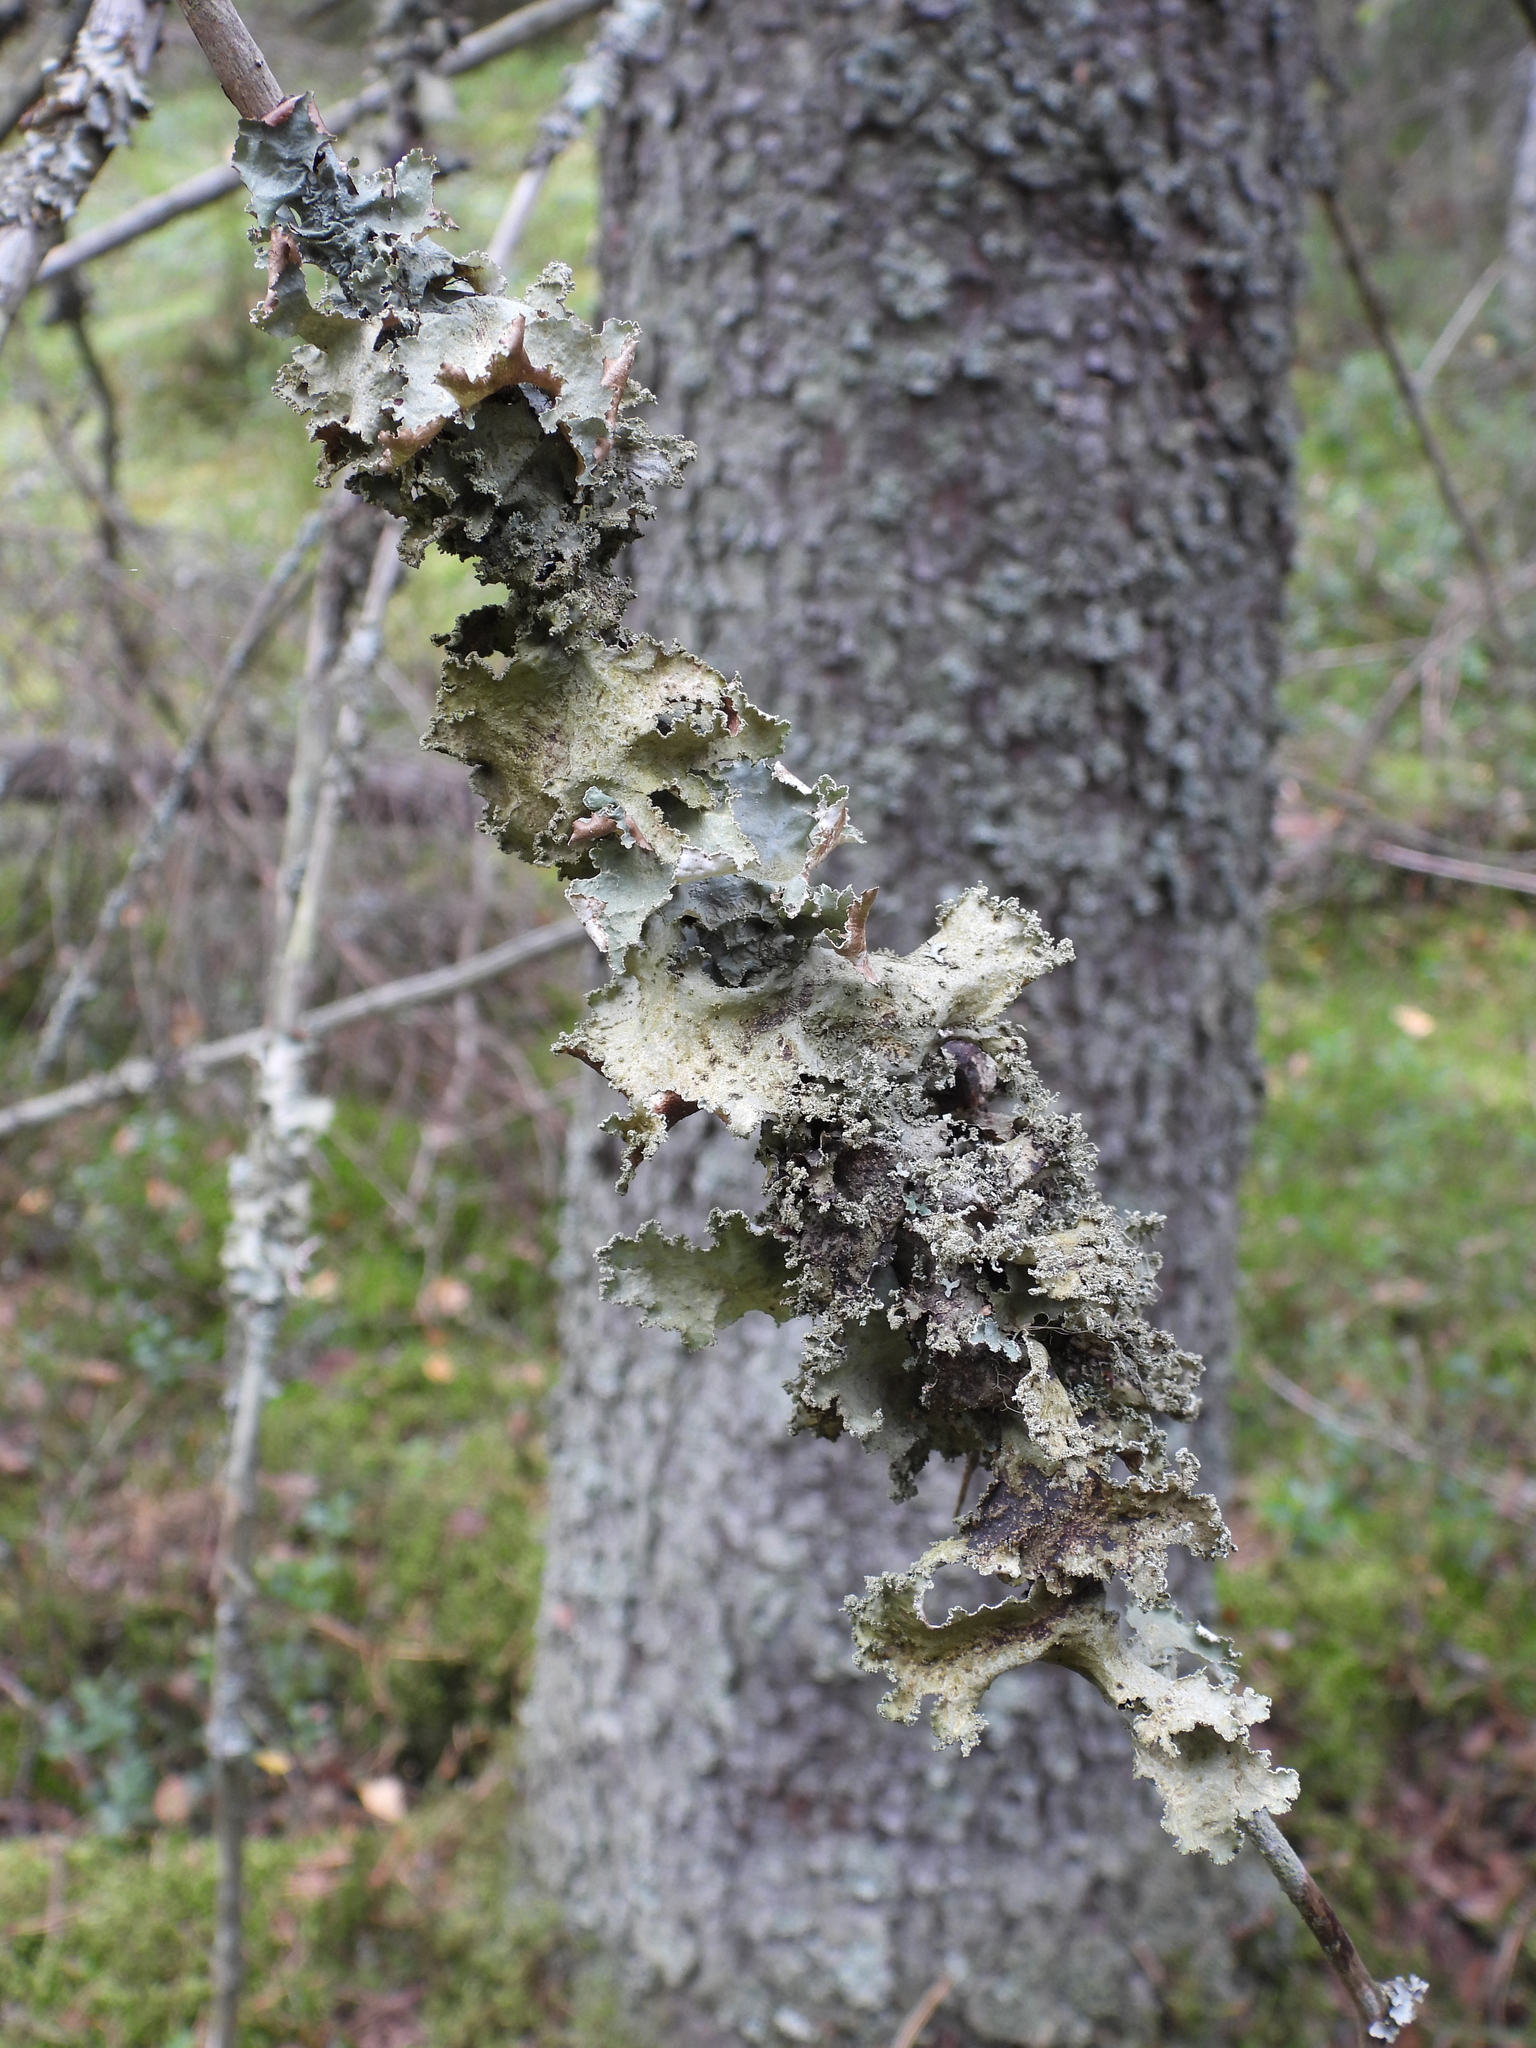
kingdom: Fungi
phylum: Ascomycota
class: Lecanoromycetes
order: Lecanorales
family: Parmeliaceae
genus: Platismatia
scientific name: Platismatia glauca
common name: Varied rag lichen
